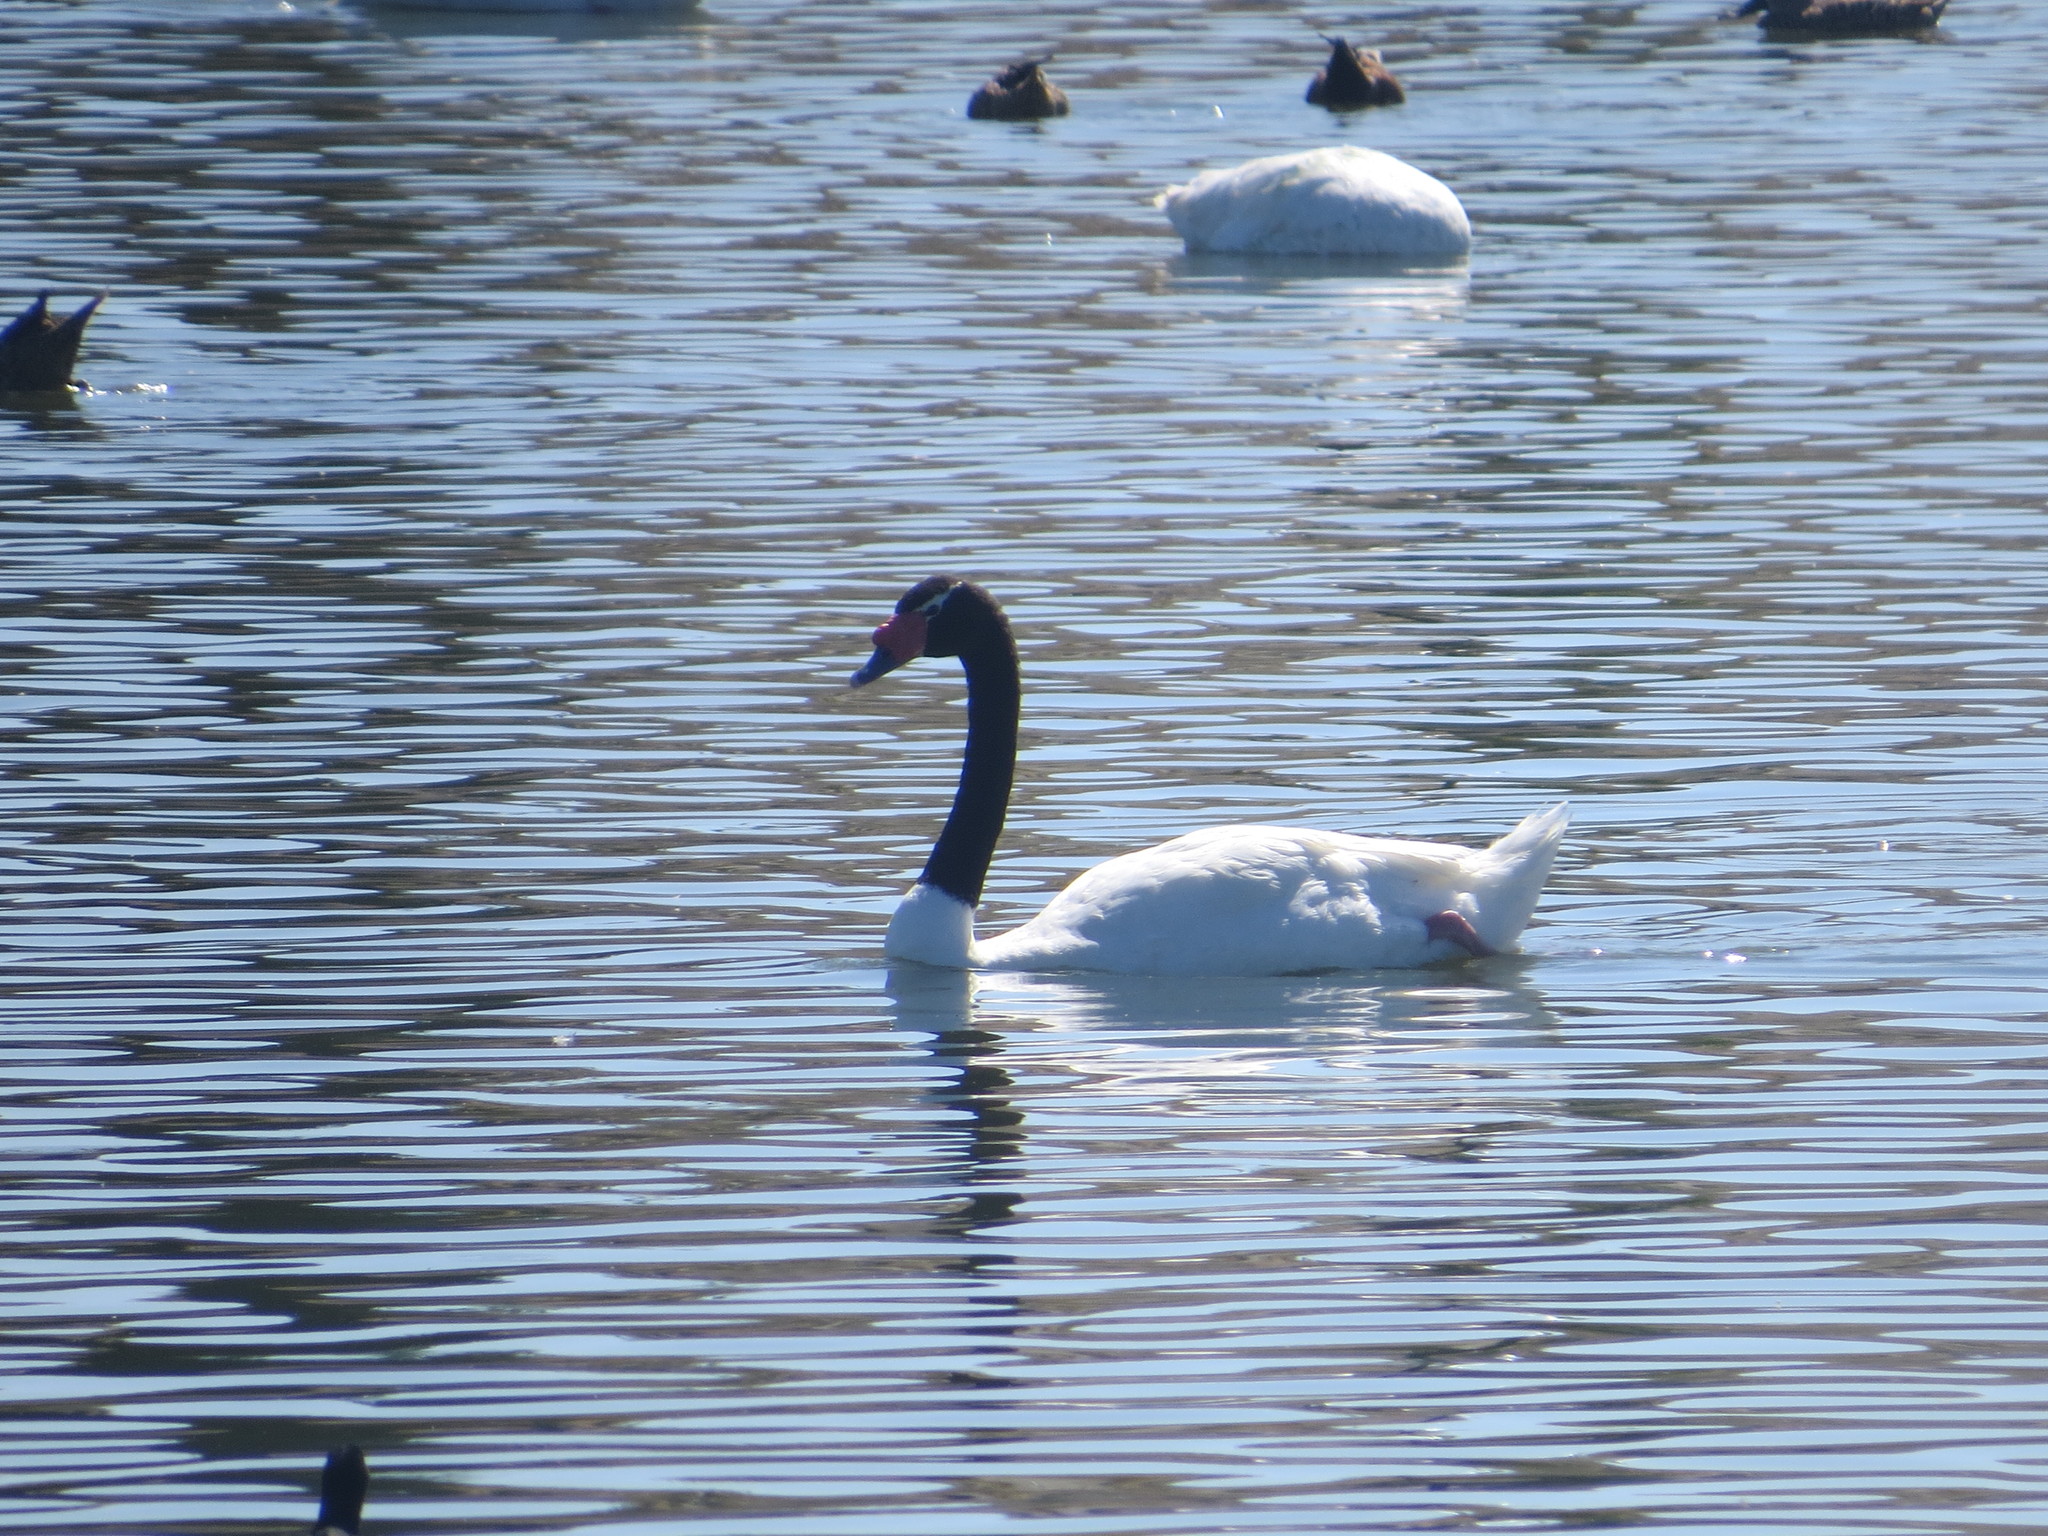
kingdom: Animalia
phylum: Chordata
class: Aves
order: Anseriformes
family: Anatidae
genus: Cygnus
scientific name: Cygnus melancoryphus
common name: Black-necked swan
